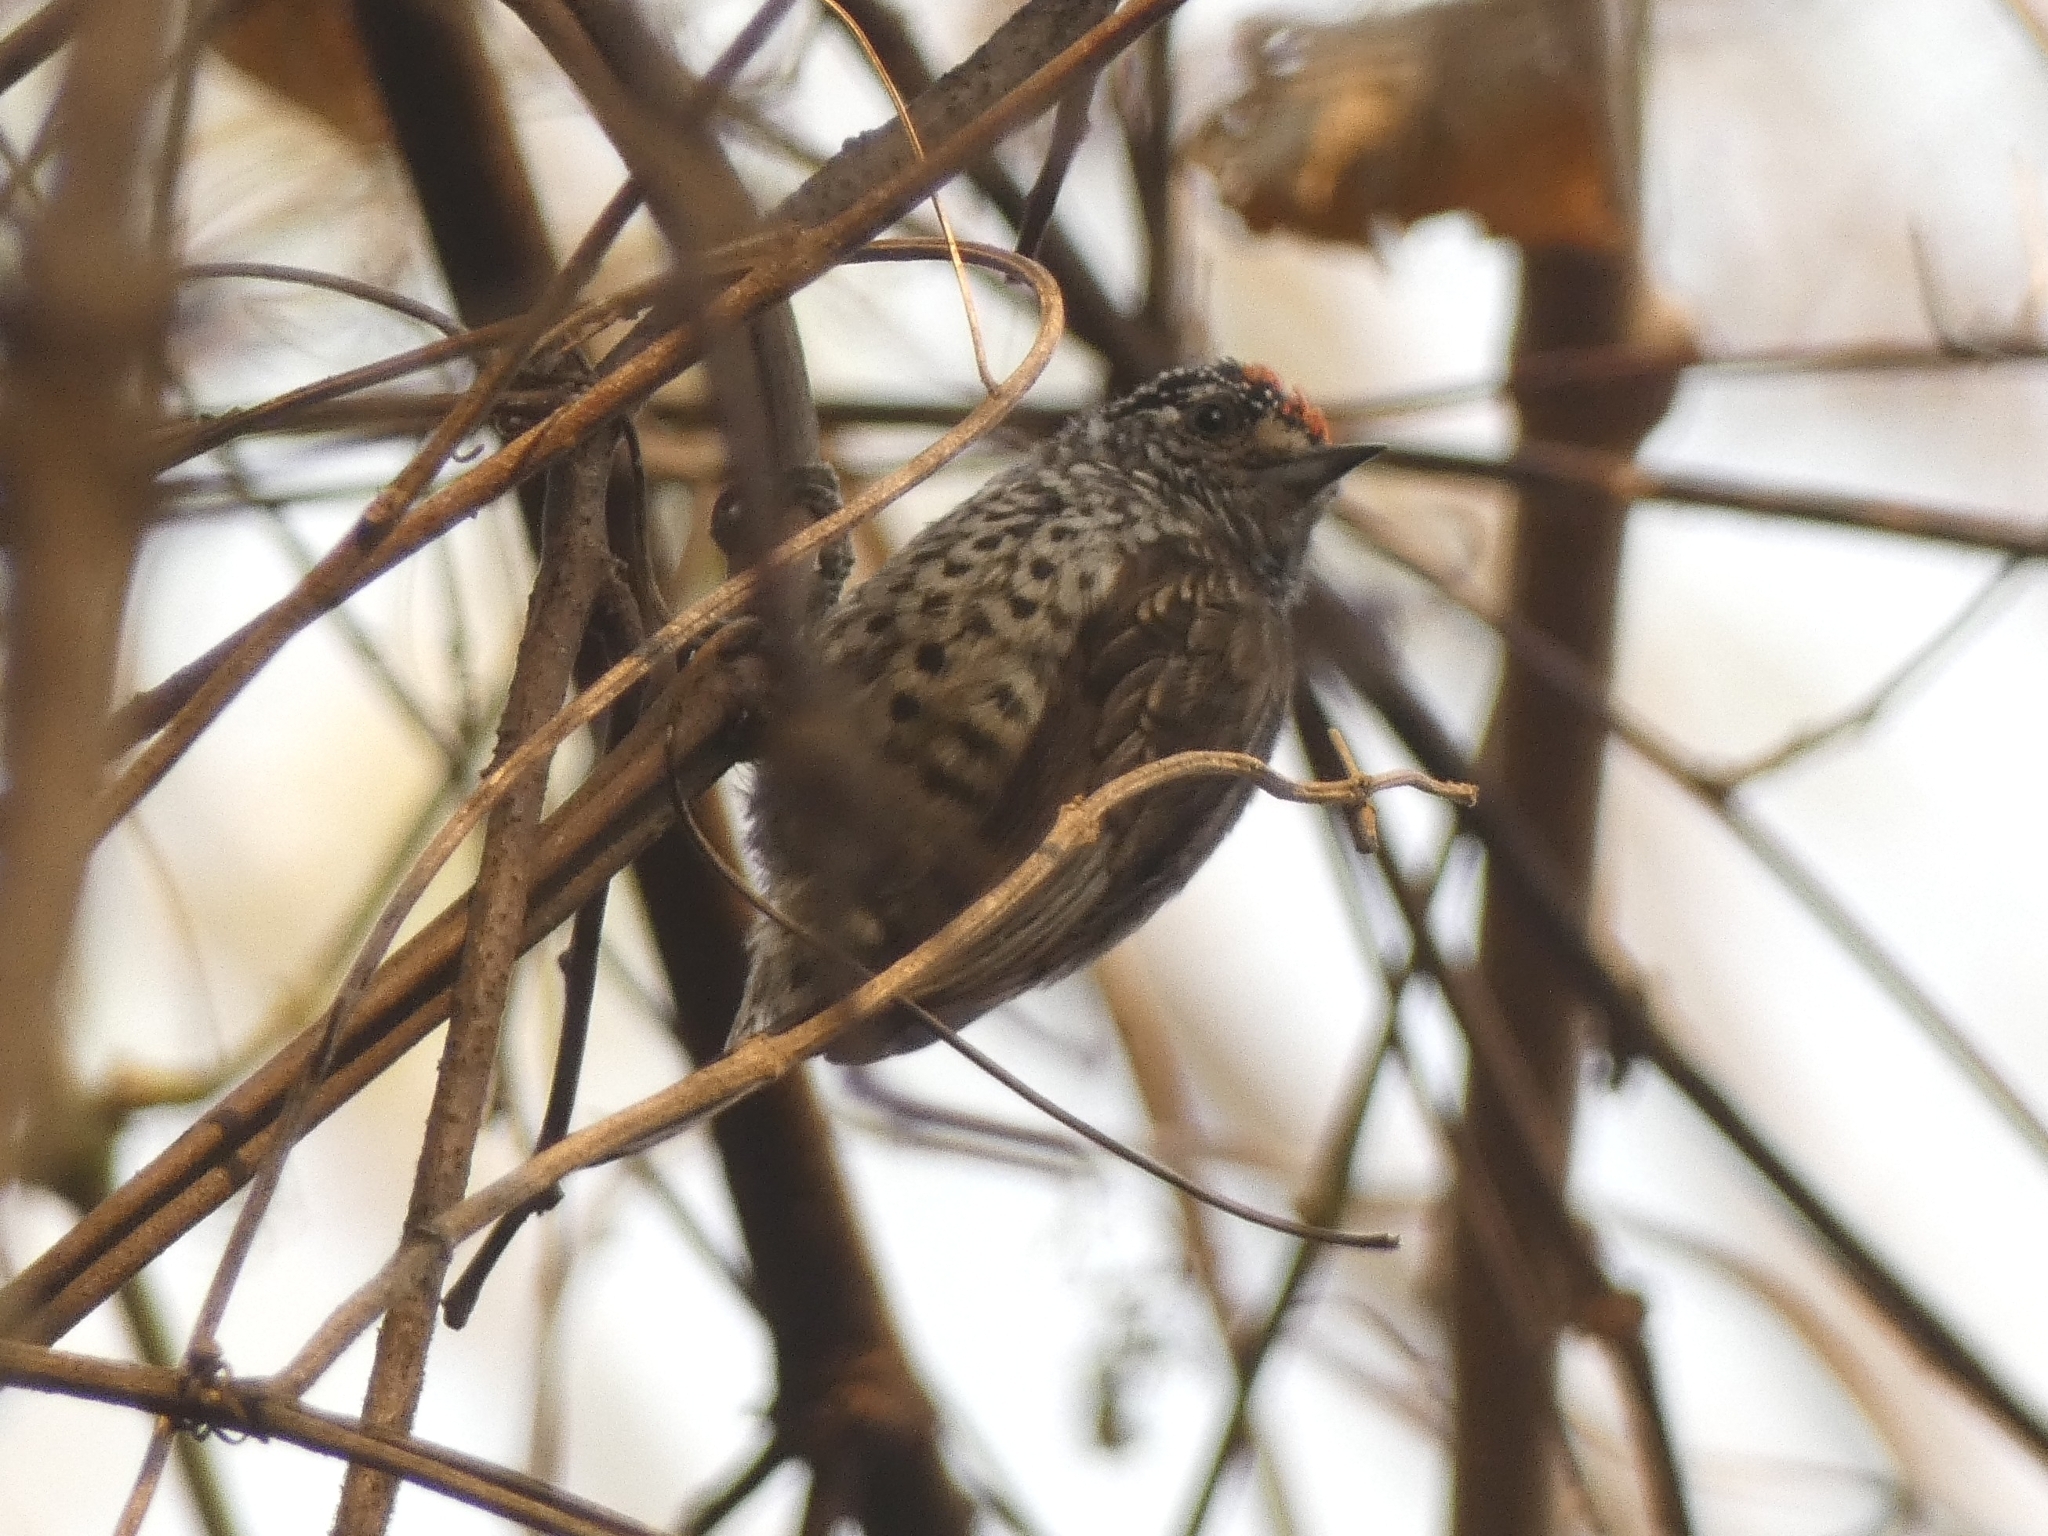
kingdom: Animalia
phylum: Chordata
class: Aves
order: Piciformes
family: Picidae
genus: Picumnus
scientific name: Picumnus cirratus
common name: White-barred piculet
